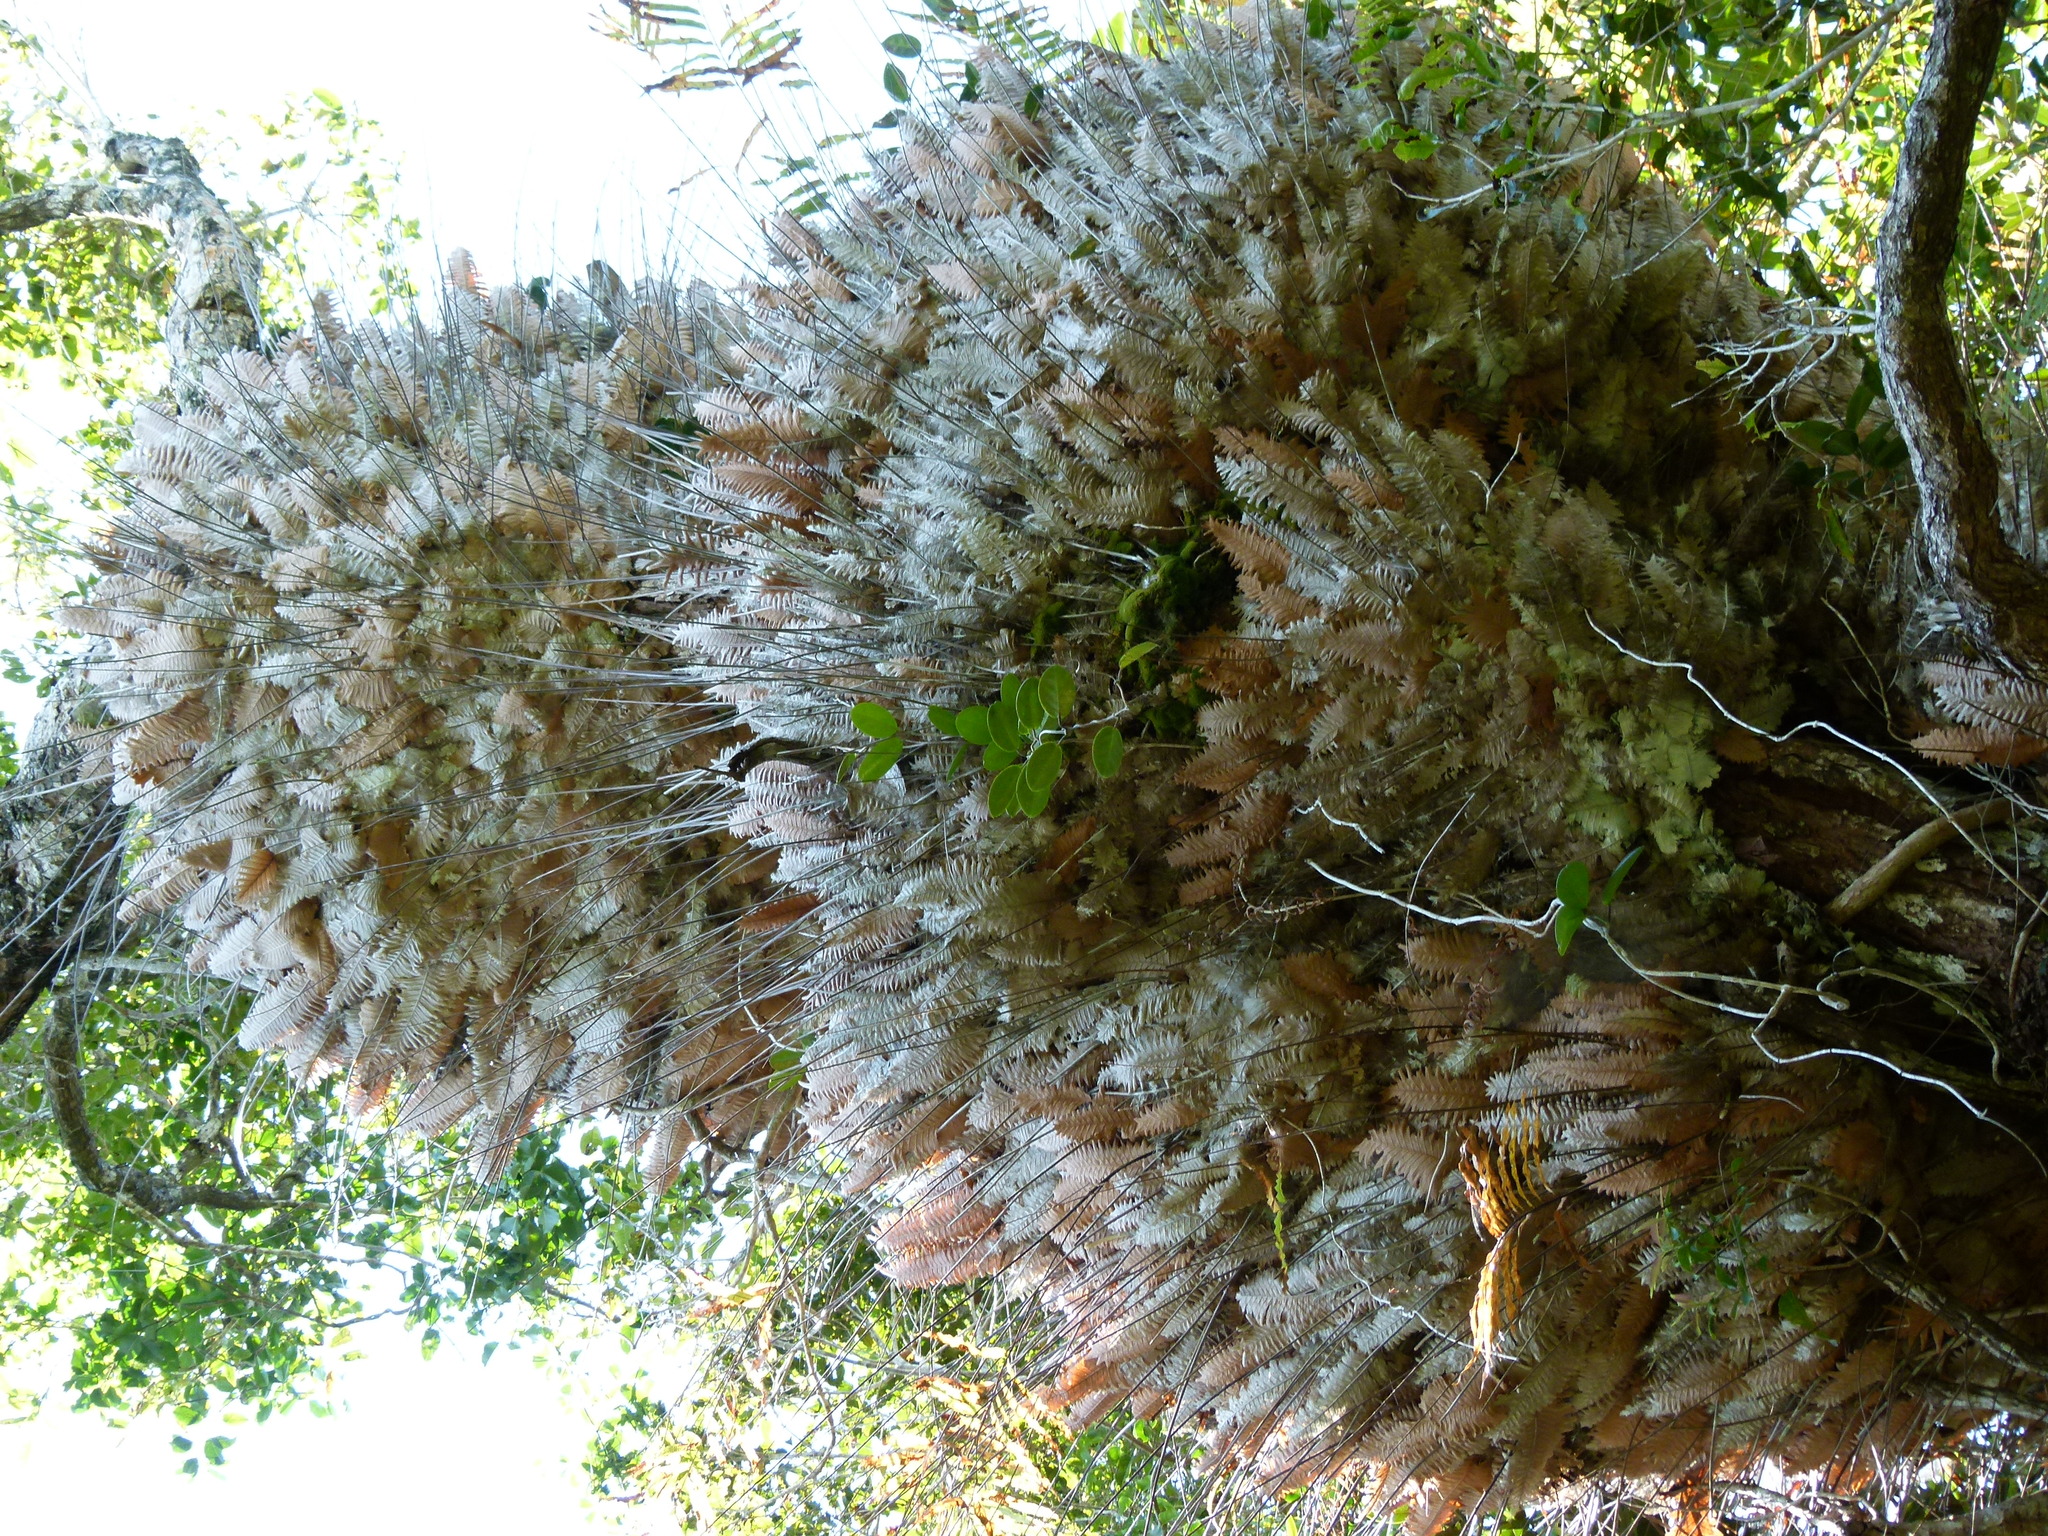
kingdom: Plantae
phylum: Tracheophyta
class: Polypodiopsida
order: Polypodiales
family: Polypodiaceae
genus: Drynaria
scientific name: Drynaria rigidula
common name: Basket fern
